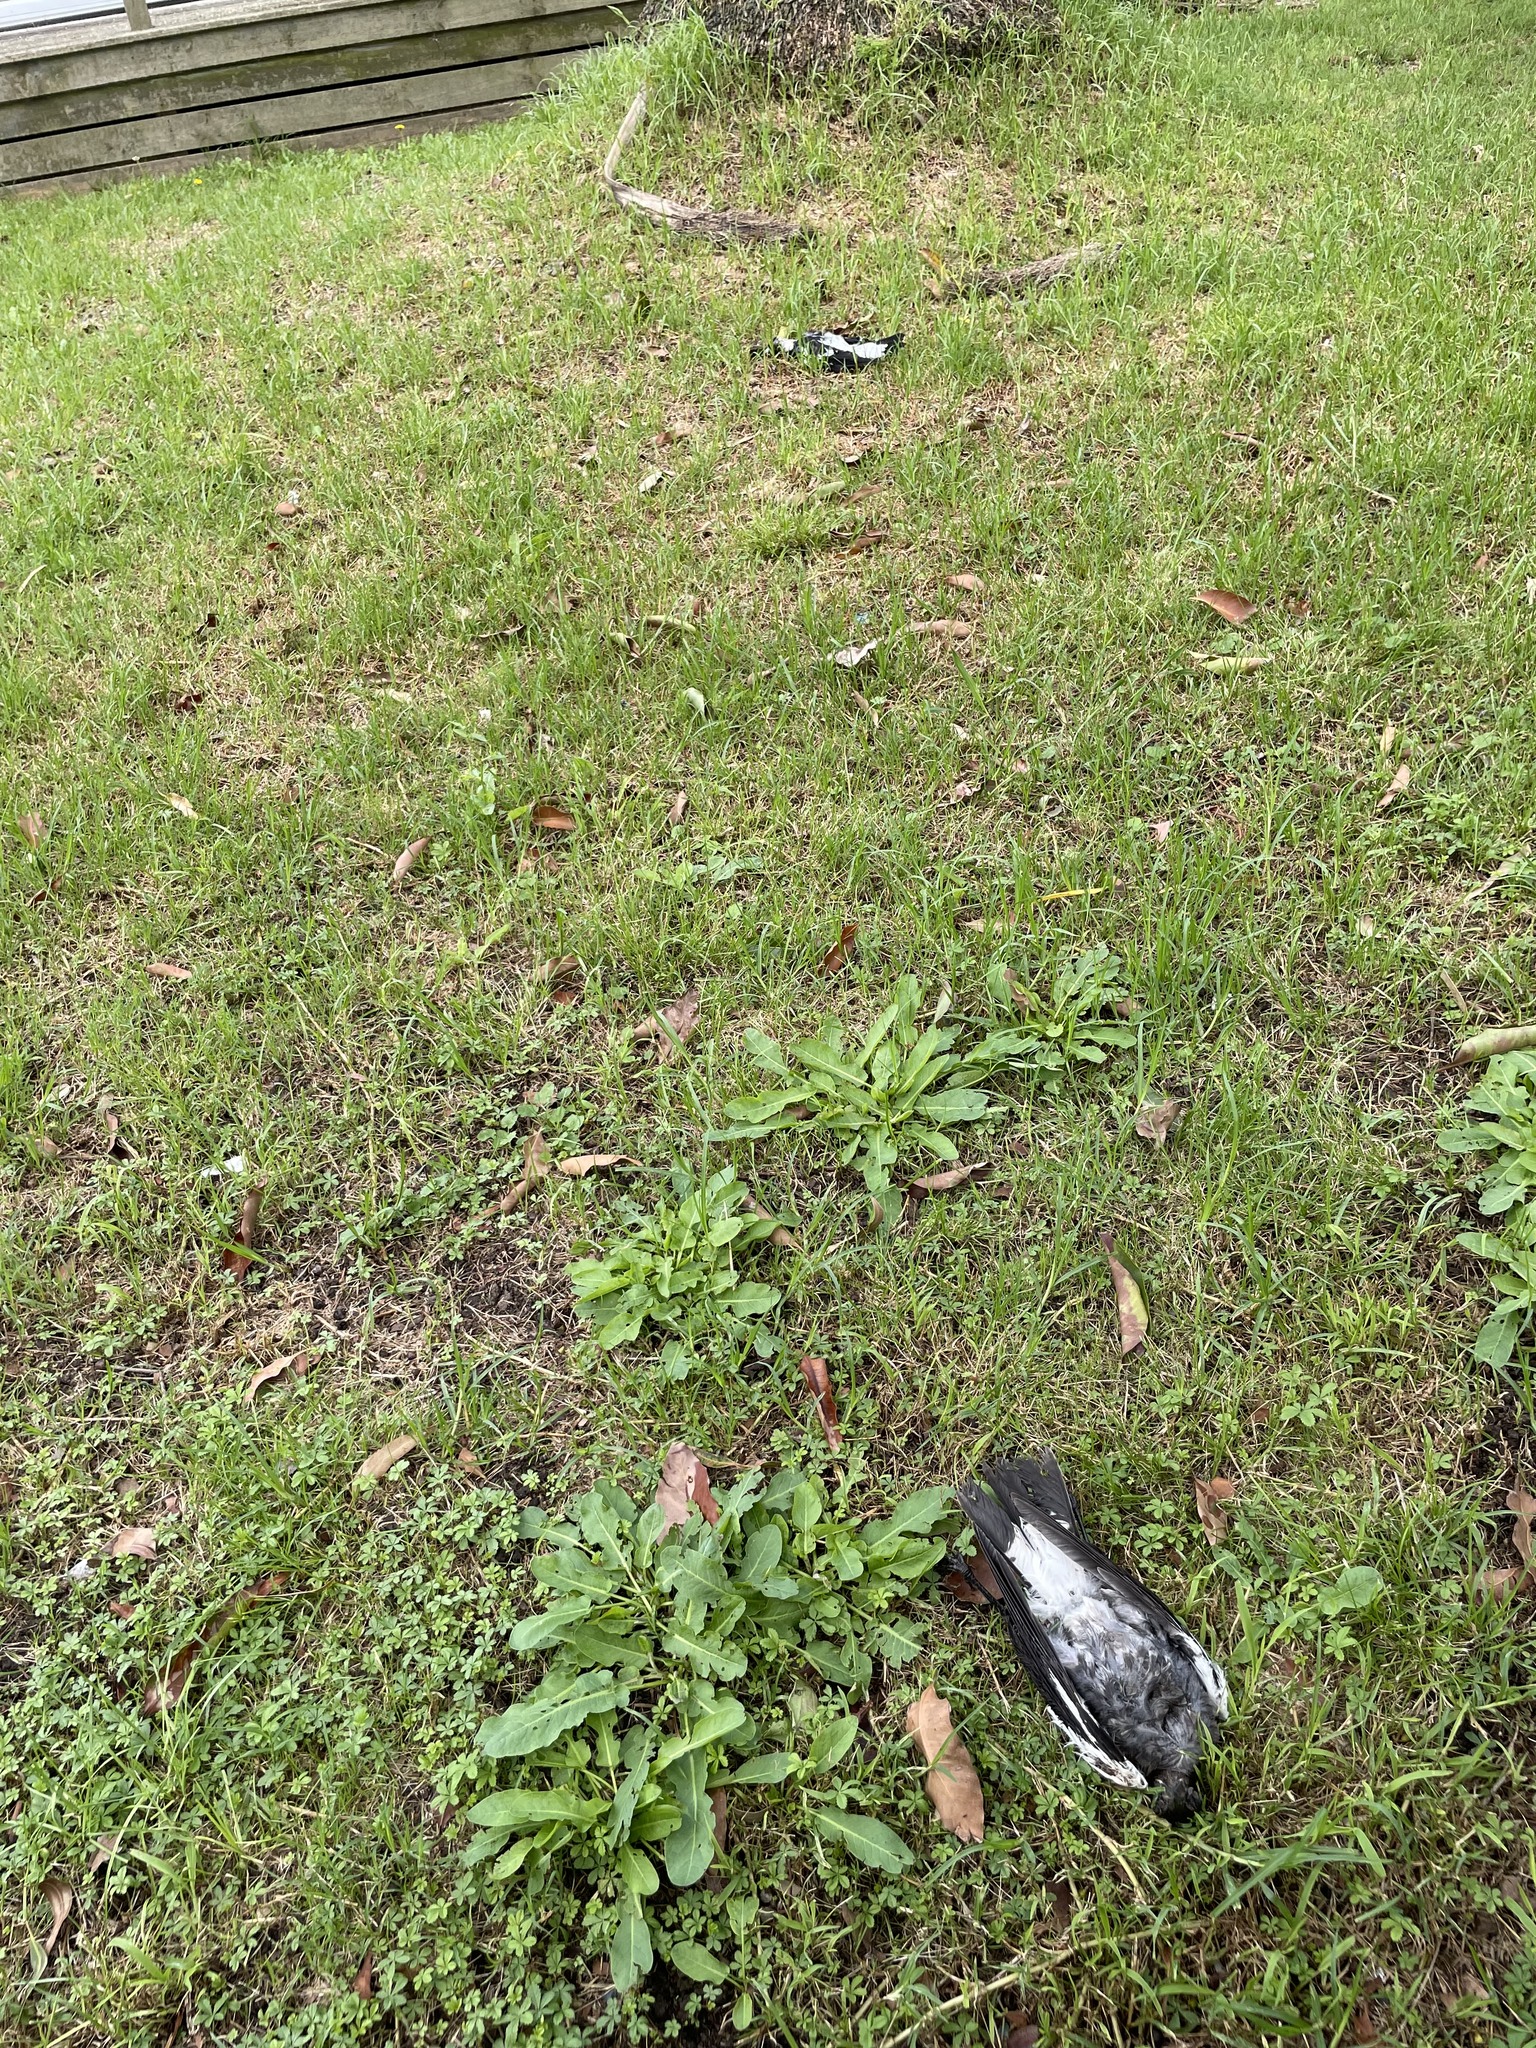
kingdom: Animalia
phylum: Chordata
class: Aves
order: Passeriformes
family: Cracticidae
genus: Gymnorhina
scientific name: Gymnorhina tibicen
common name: Australian magpie
